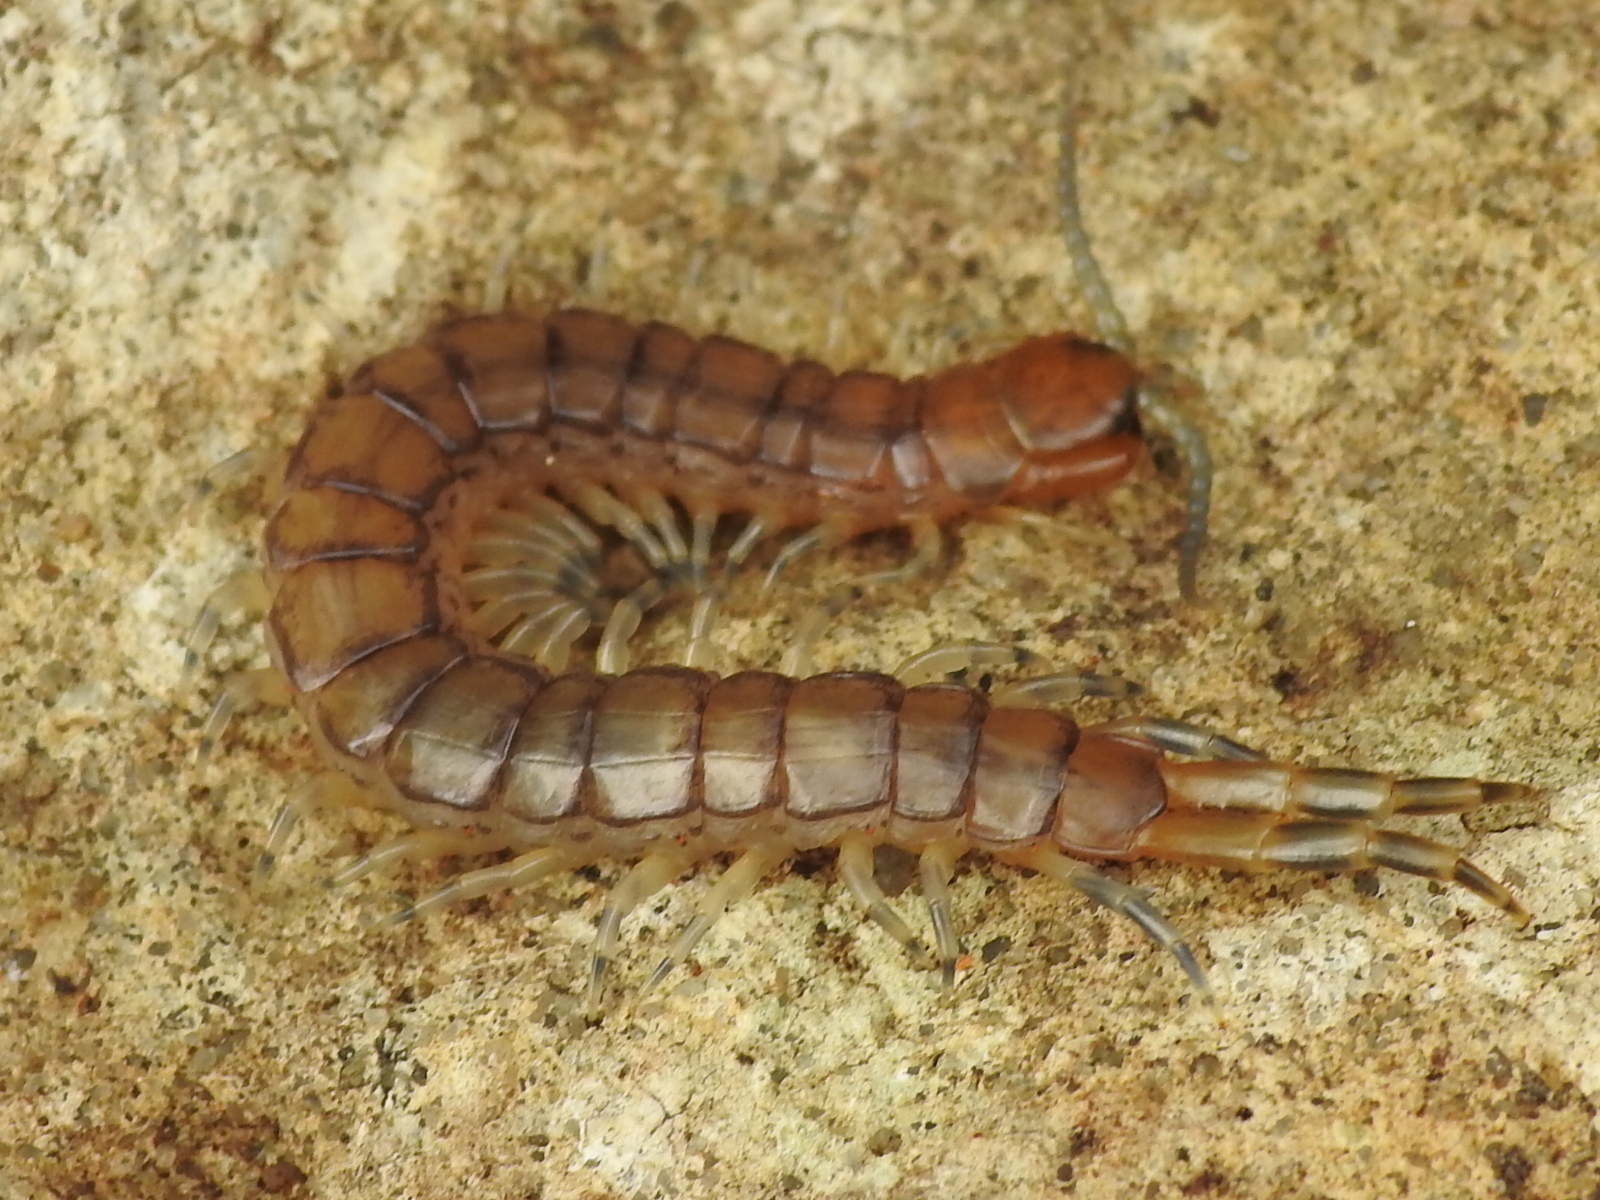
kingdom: Animalia
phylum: Arthropoda
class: Chilopoda
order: Scolopendromorpha
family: Scolopendridae
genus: Hemiscolopendra
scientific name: Hemiscolopendra marginata
